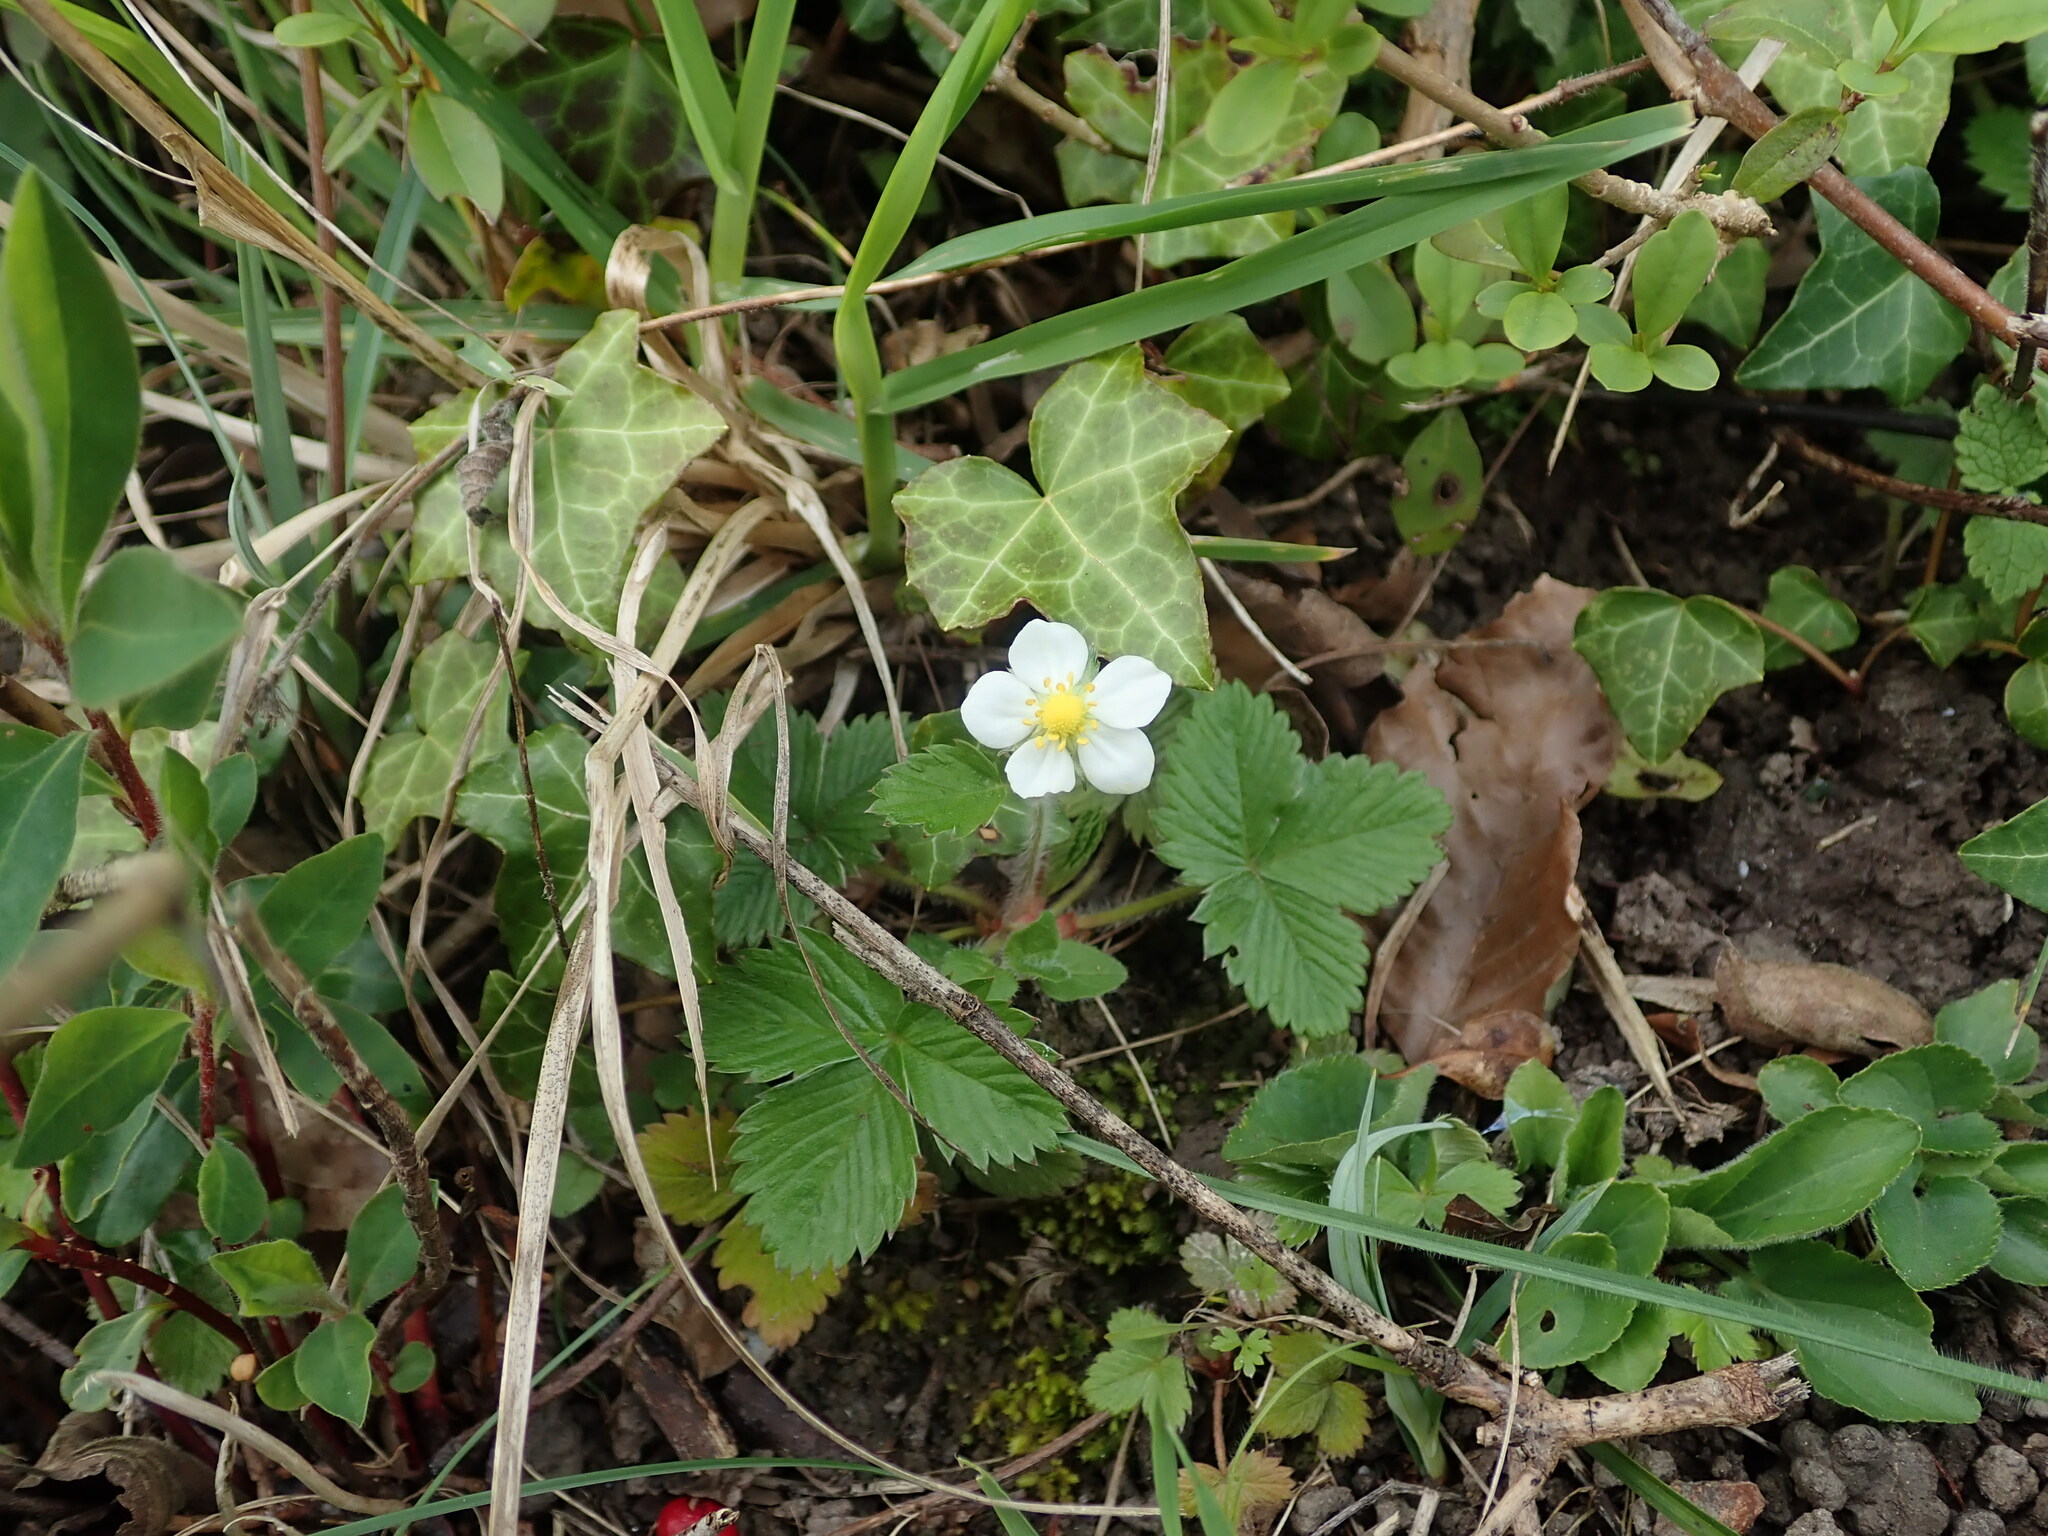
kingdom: Plantae
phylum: Tracheophyta
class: Magnoliopsida
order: Rosales
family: Rosaceae
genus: Fragaria
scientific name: Fragaria vesca
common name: Wild strawberry
